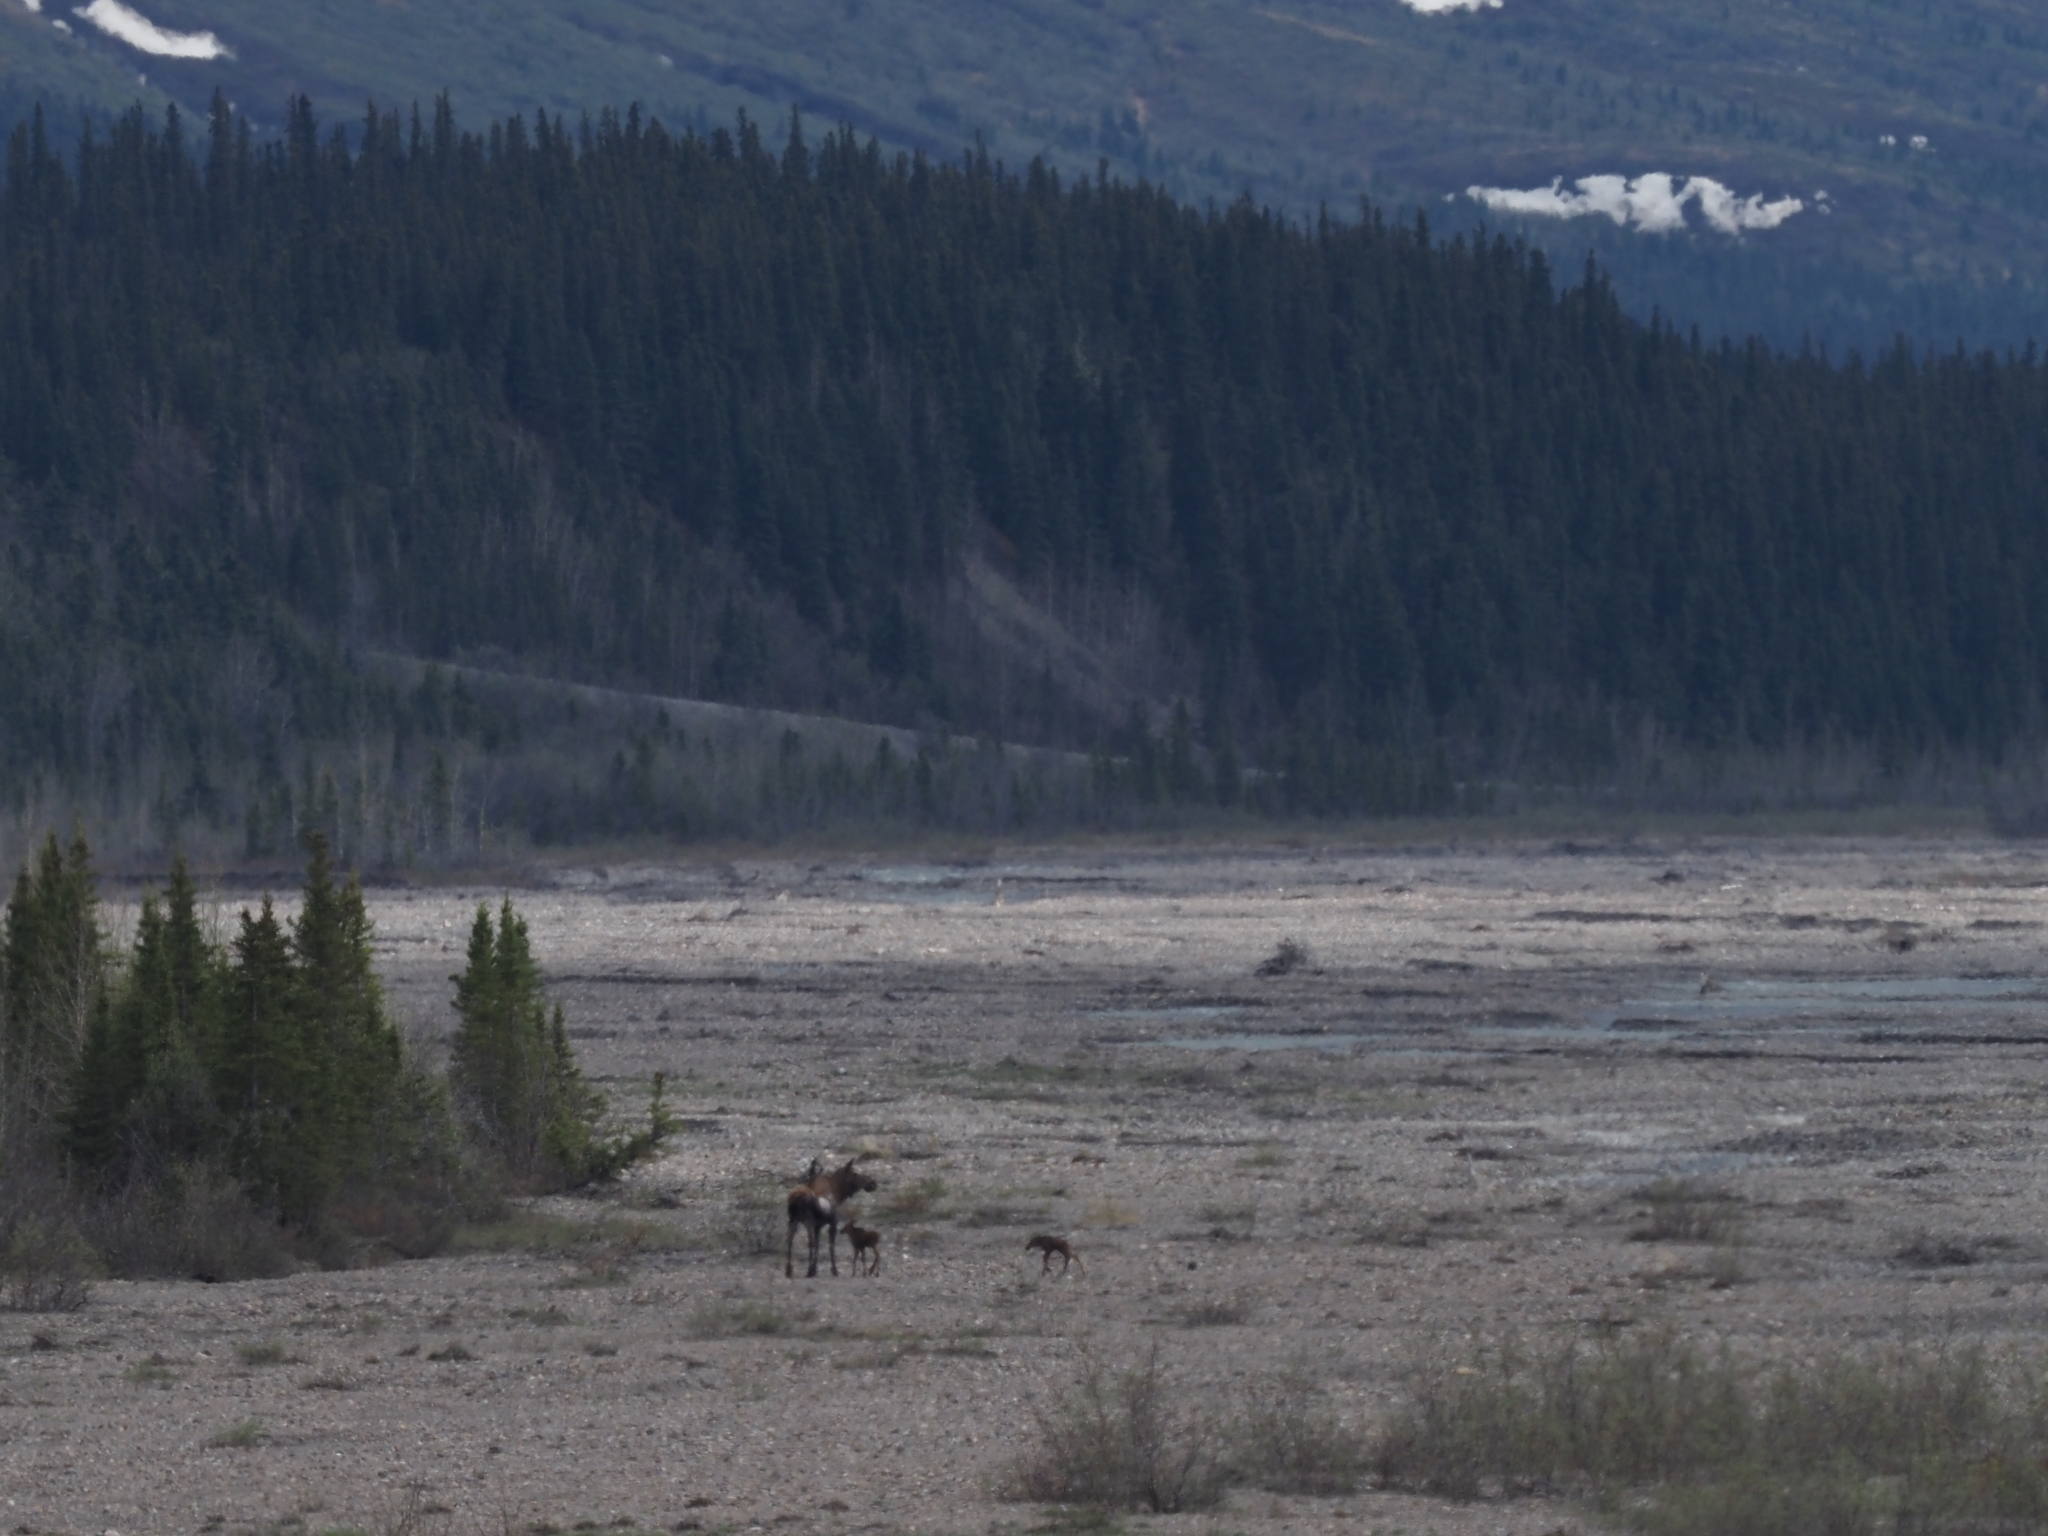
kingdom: Animalia
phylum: Chordata
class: Mammalia
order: Artiodactyla
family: Cervidae
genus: Alces
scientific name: Alces alces
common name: Moose
